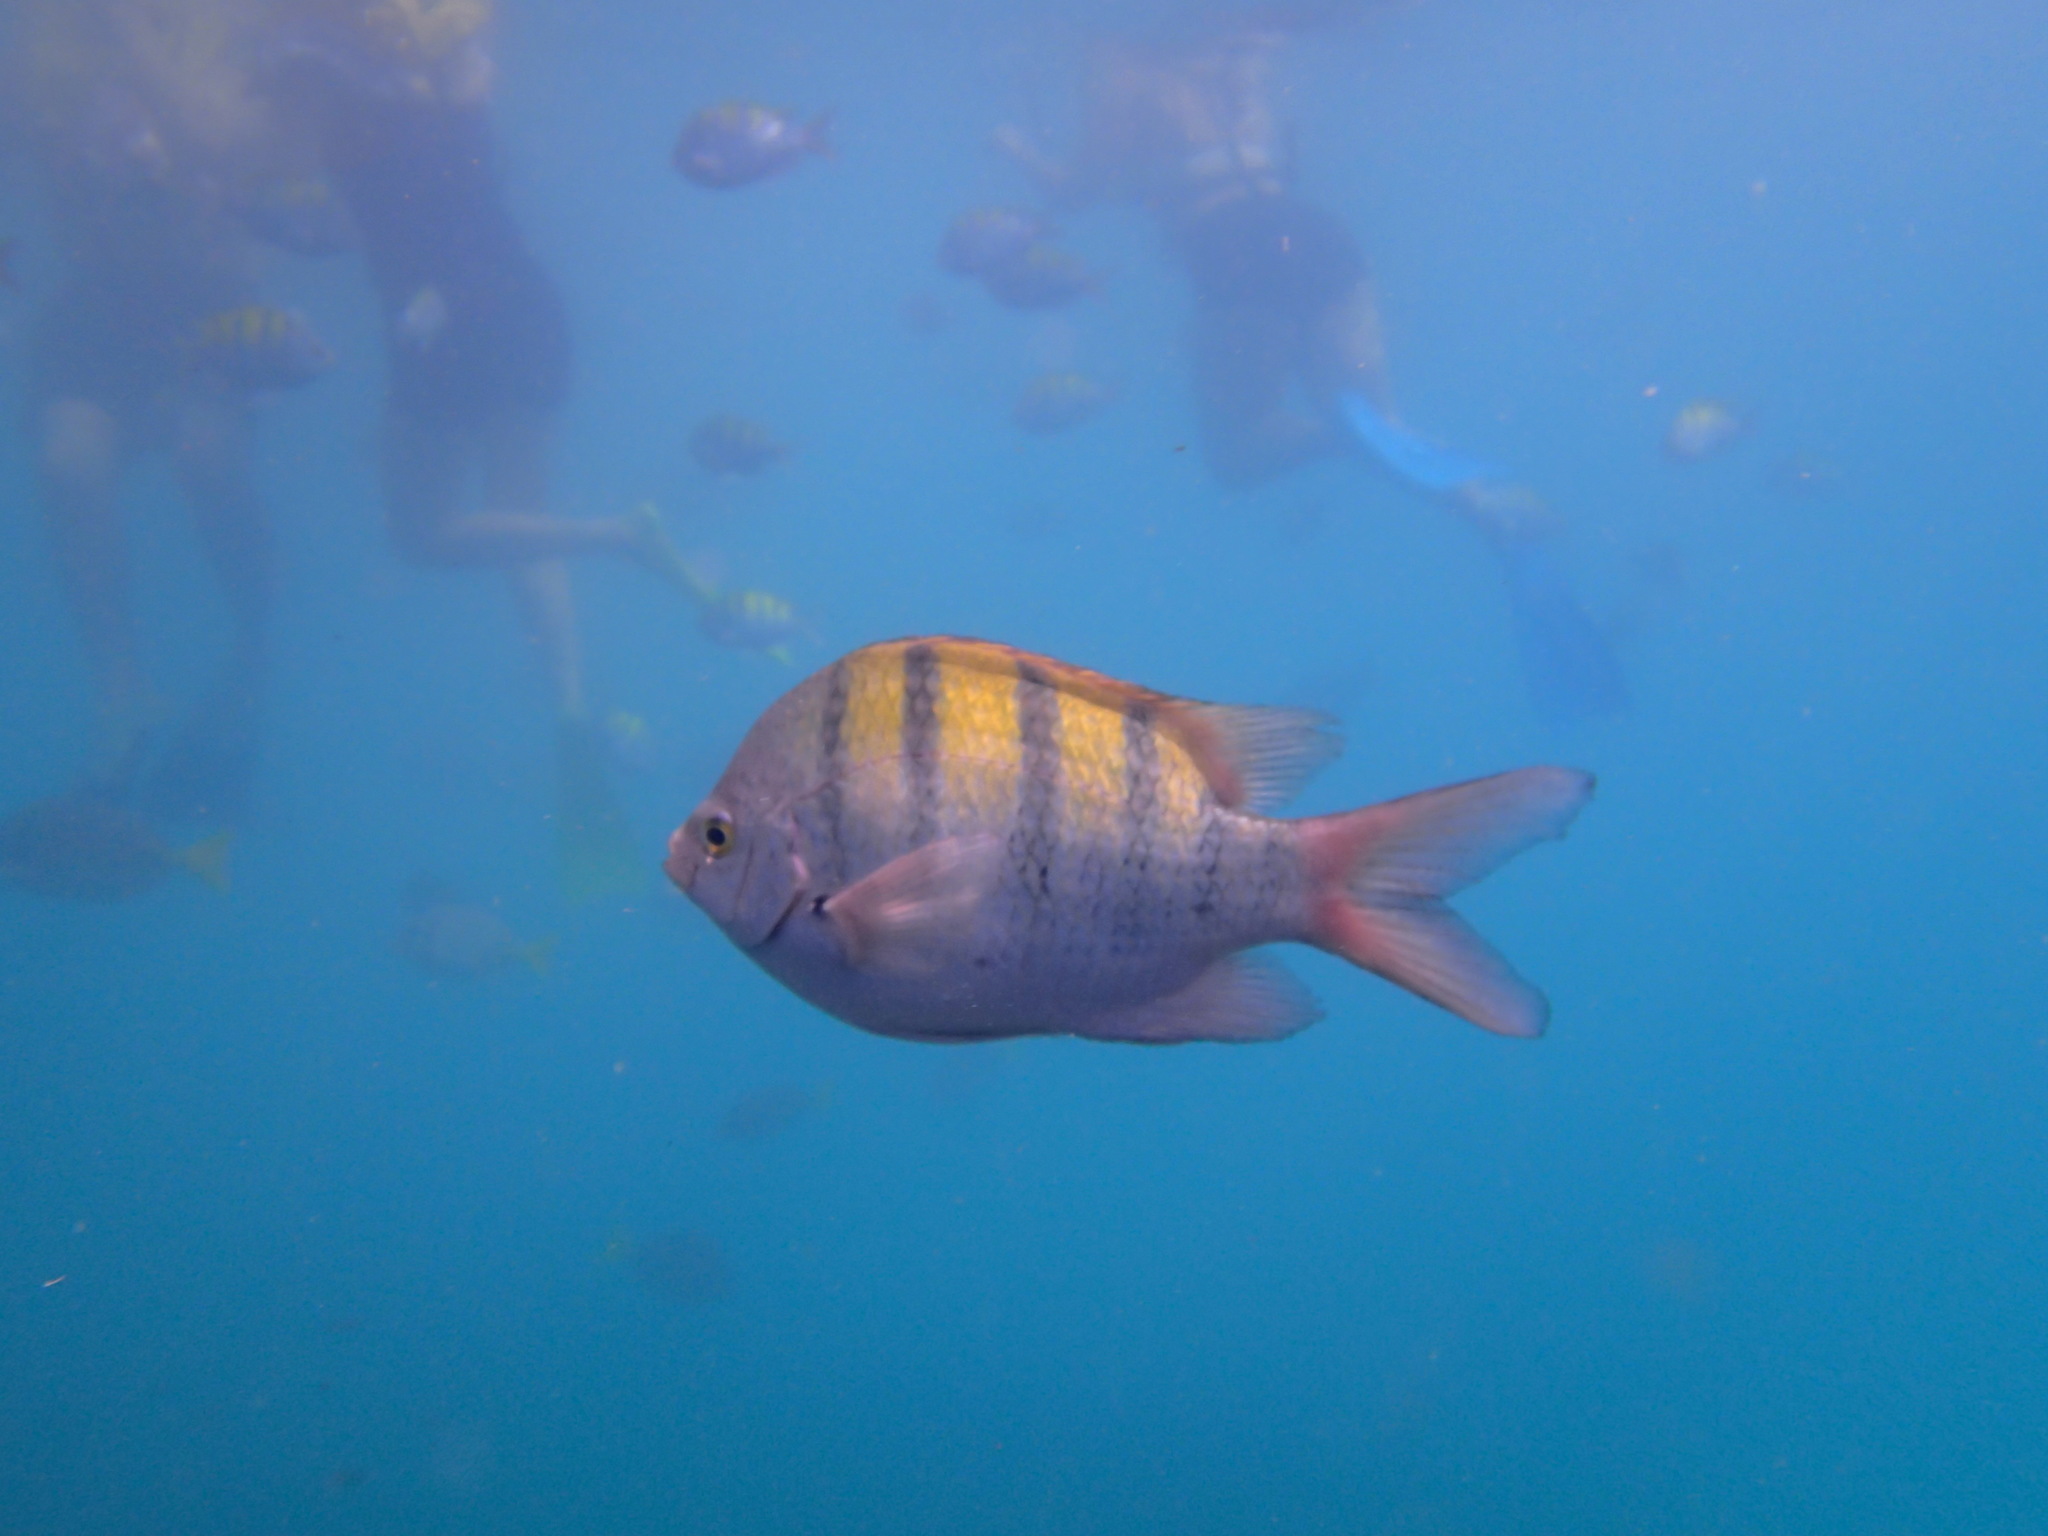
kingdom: Animalia
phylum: Chordata
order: Perciformes
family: Pomacentridae
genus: Abudefduf
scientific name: Abudefduf troschelii
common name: Panamic sergeant major
